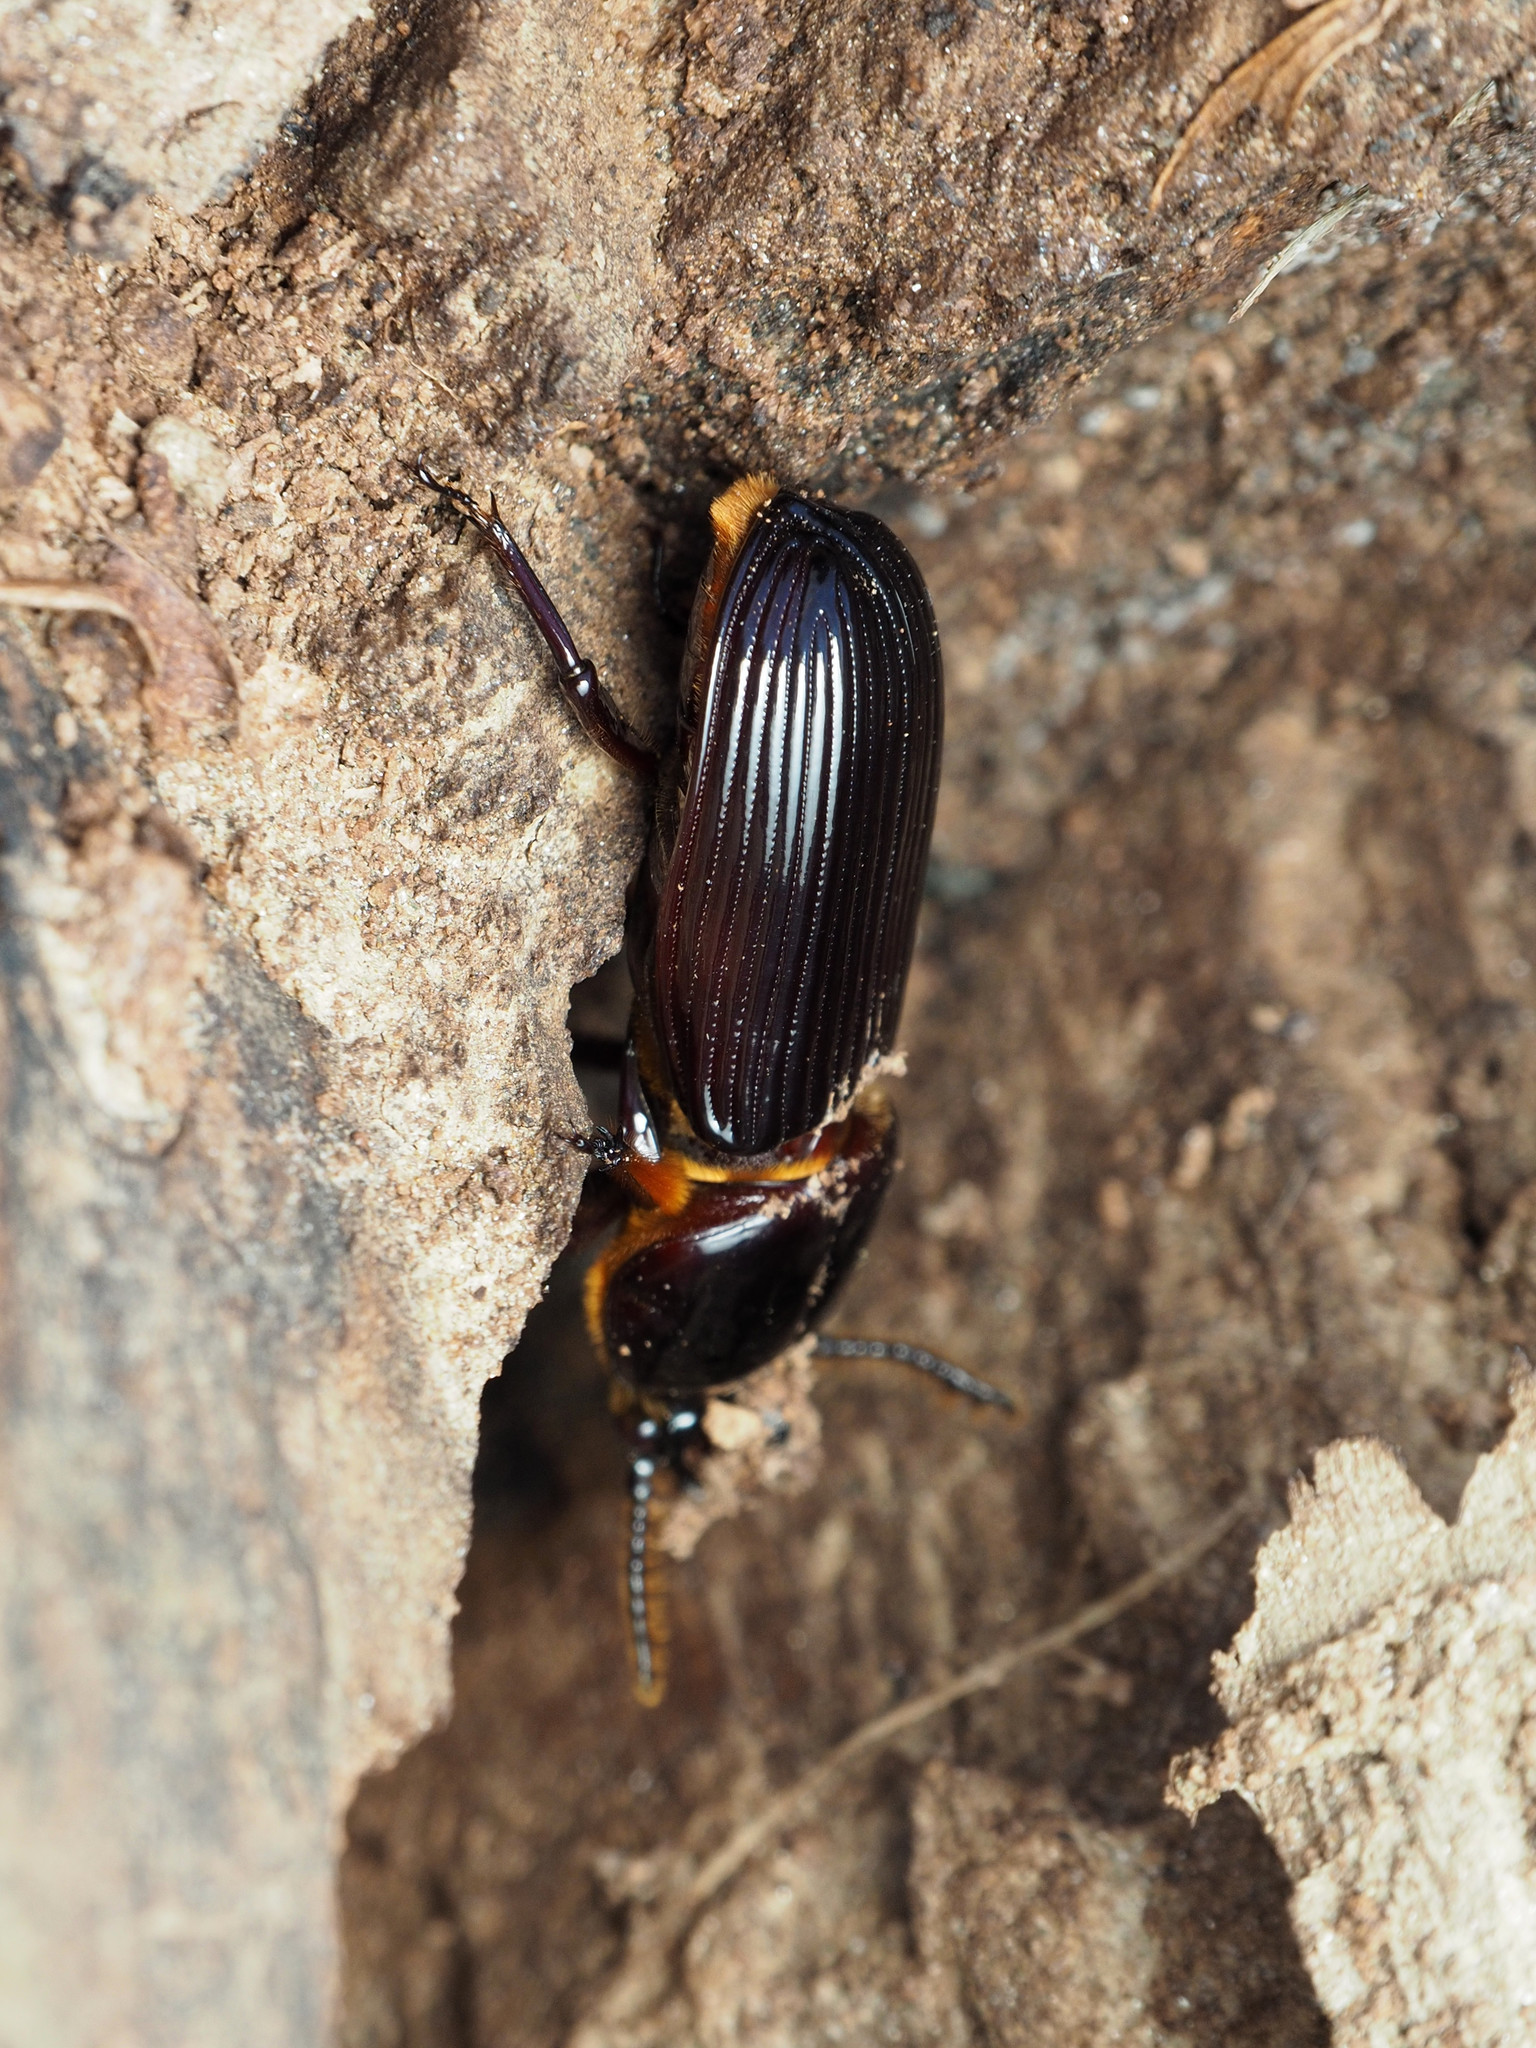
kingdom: Animalia
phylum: Arthropoda
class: Insecta
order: Coleoptera
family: Passalidae
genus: Odontotaenius
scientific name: Odontotaenius disjunctus
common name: Patent leather beetle
